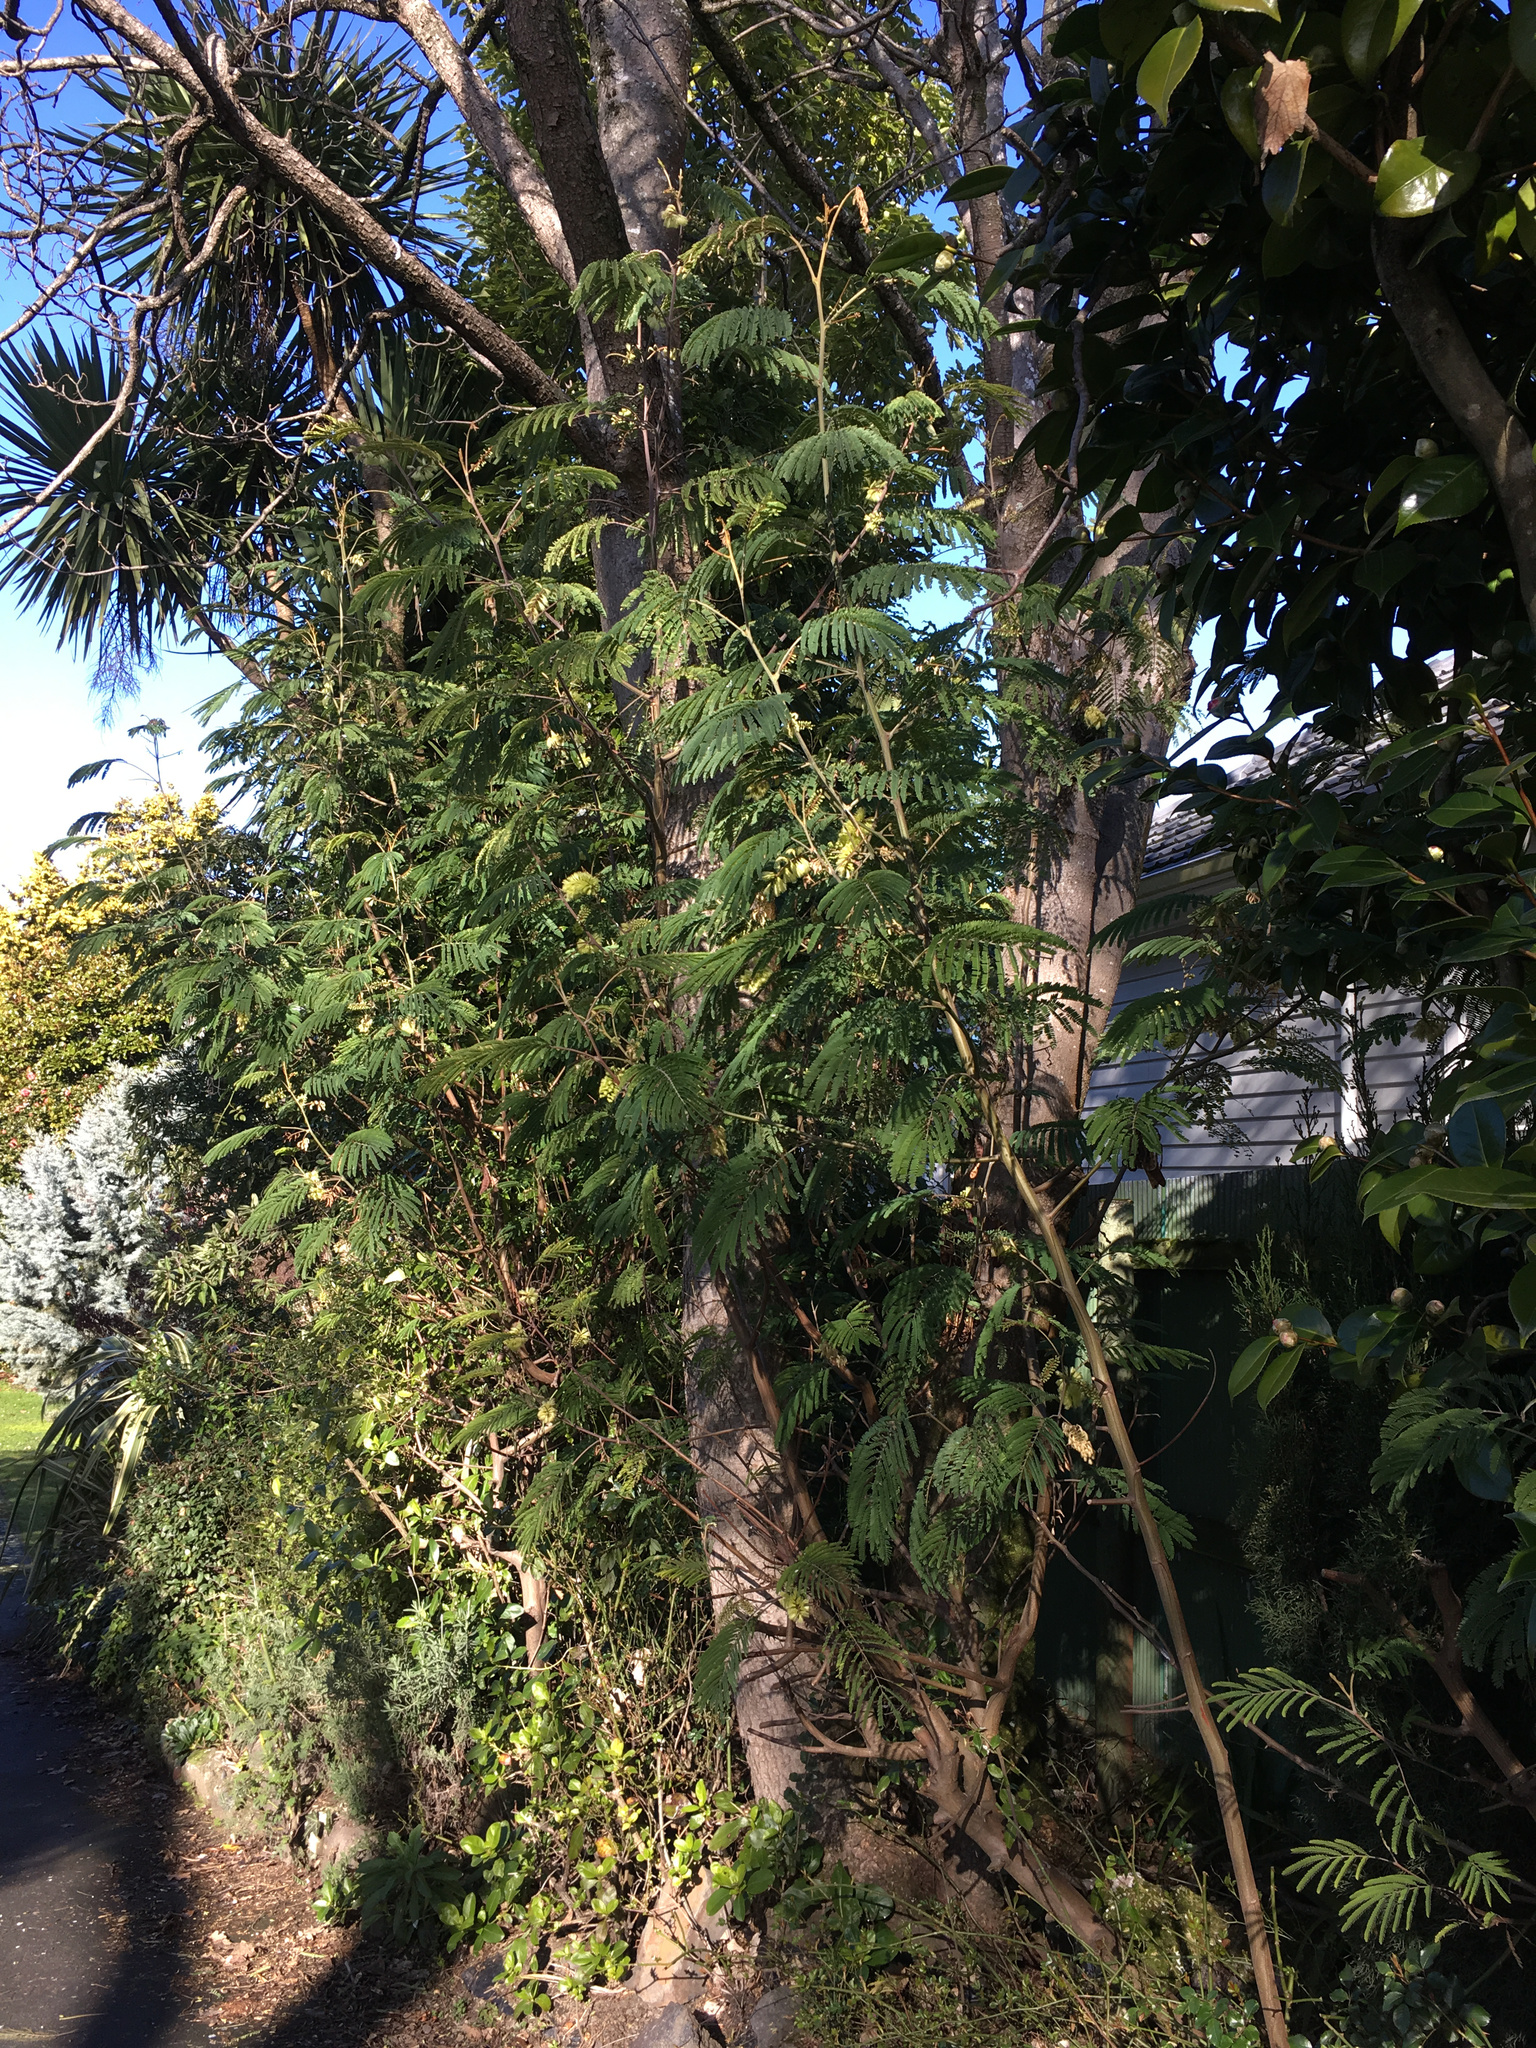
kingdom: Plantae
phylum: Tracheophyta
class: Magnoliopsida
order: Fabales
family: Fabaceae
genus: Paraserianthes
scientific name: Paraserianthes lophantha
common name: Plume albizia
